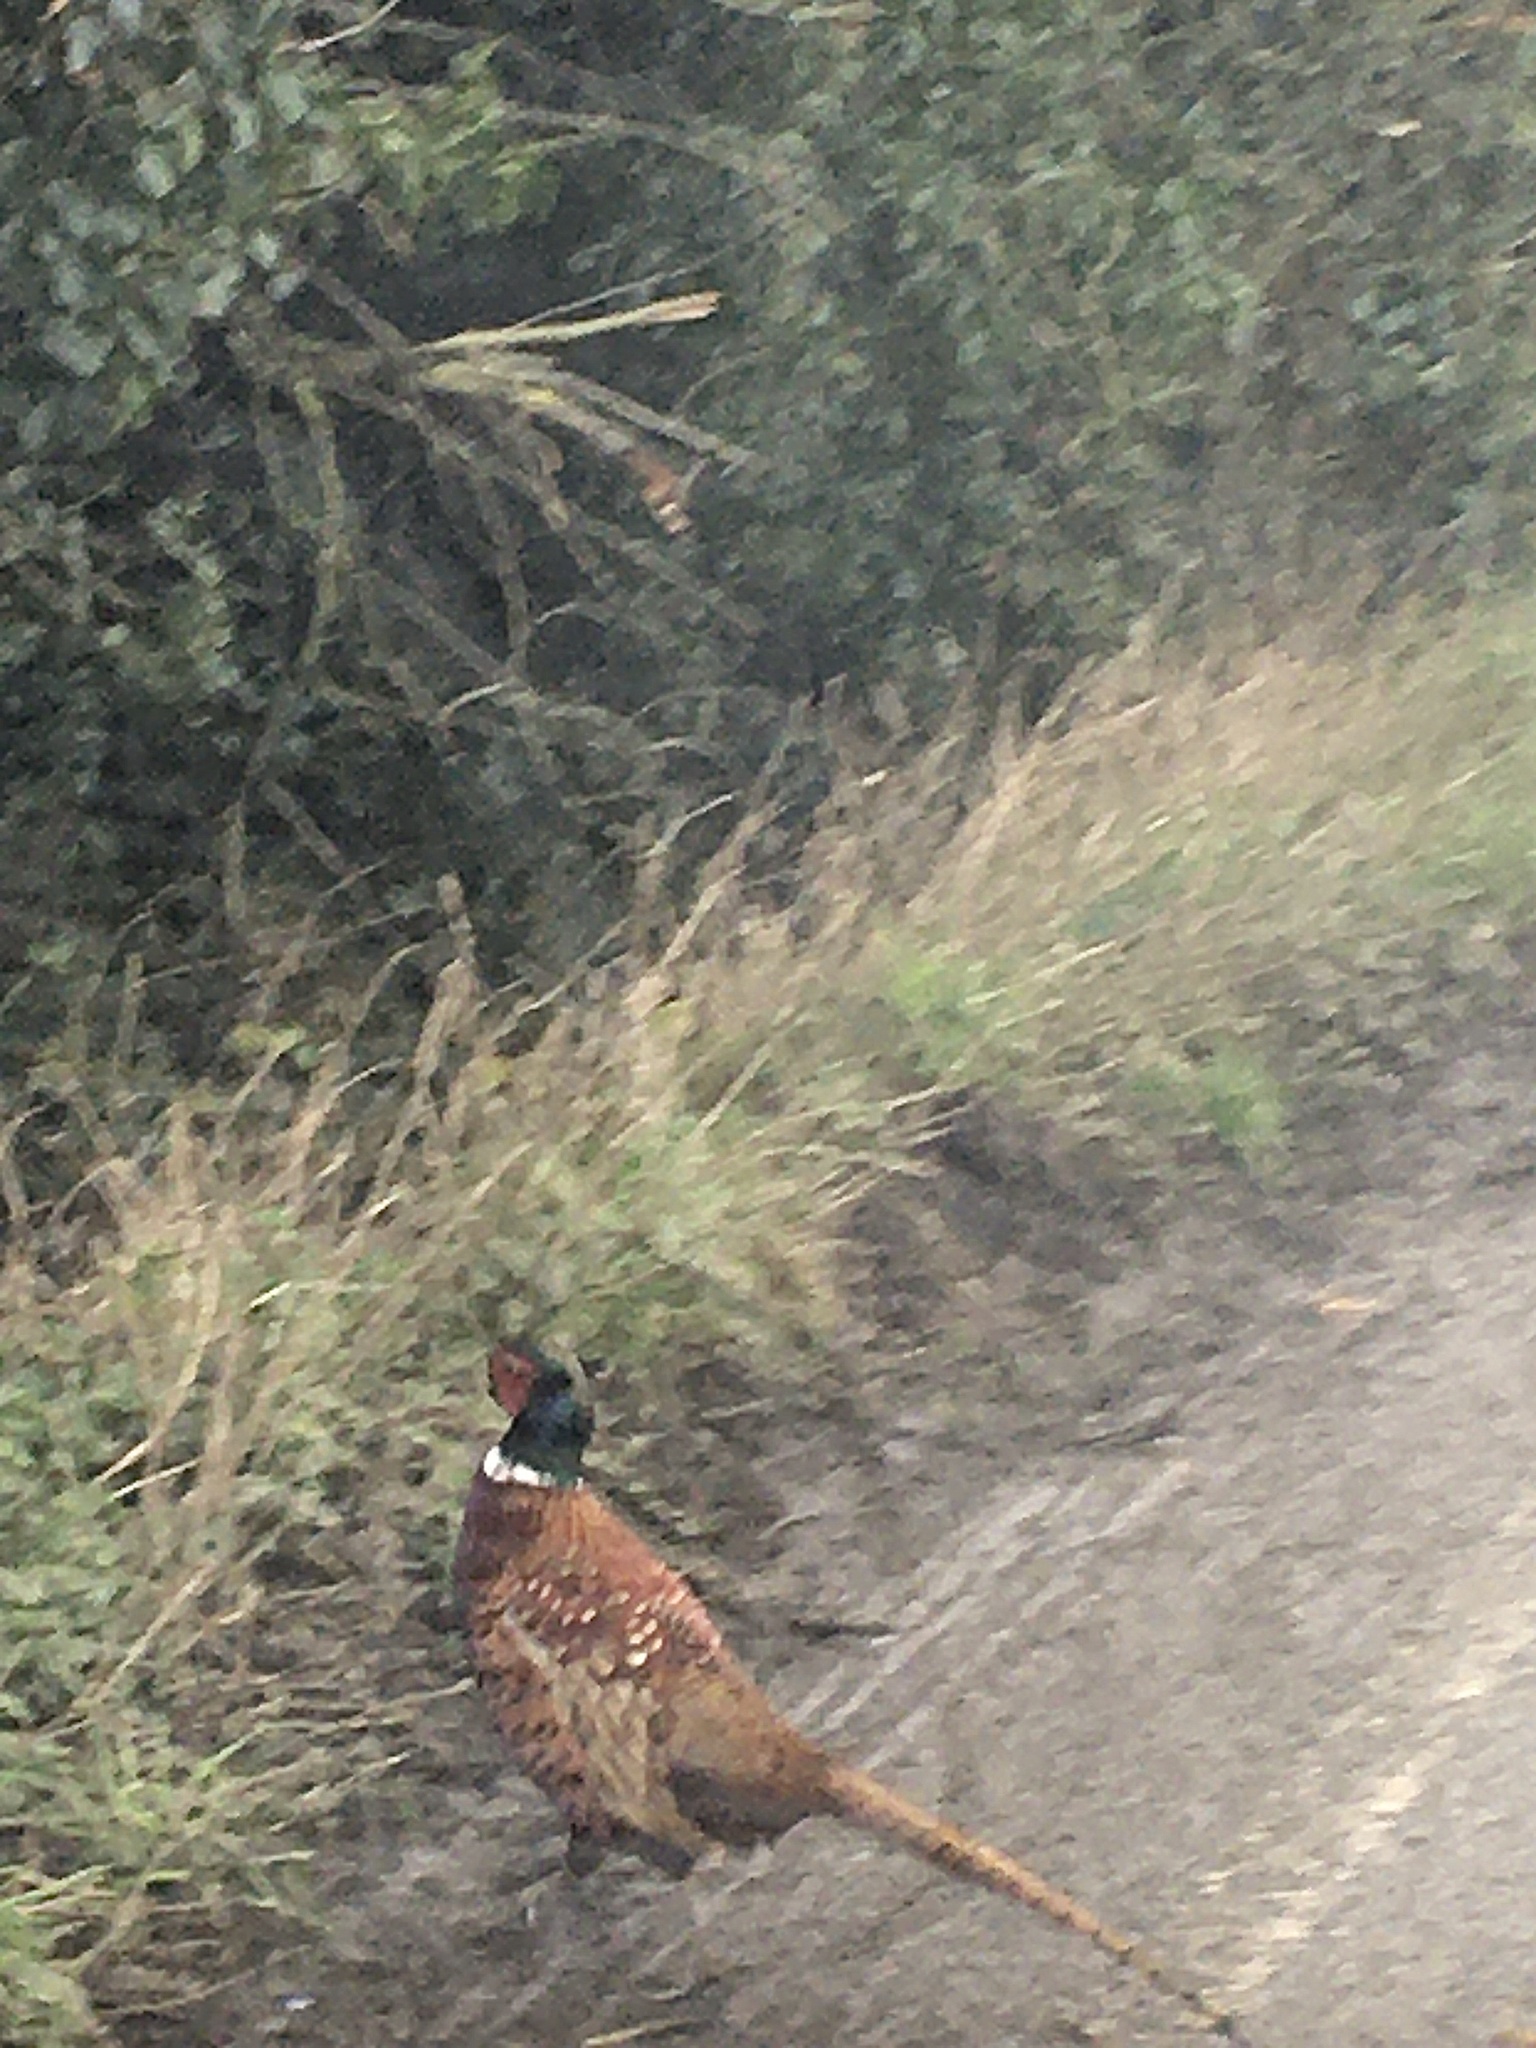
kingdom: Animalia
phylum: Chordata
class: Aves
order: Galliformes
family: Phasianidae
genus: Phasianus
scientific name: Phasianus colchicus
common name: Common pheasant
